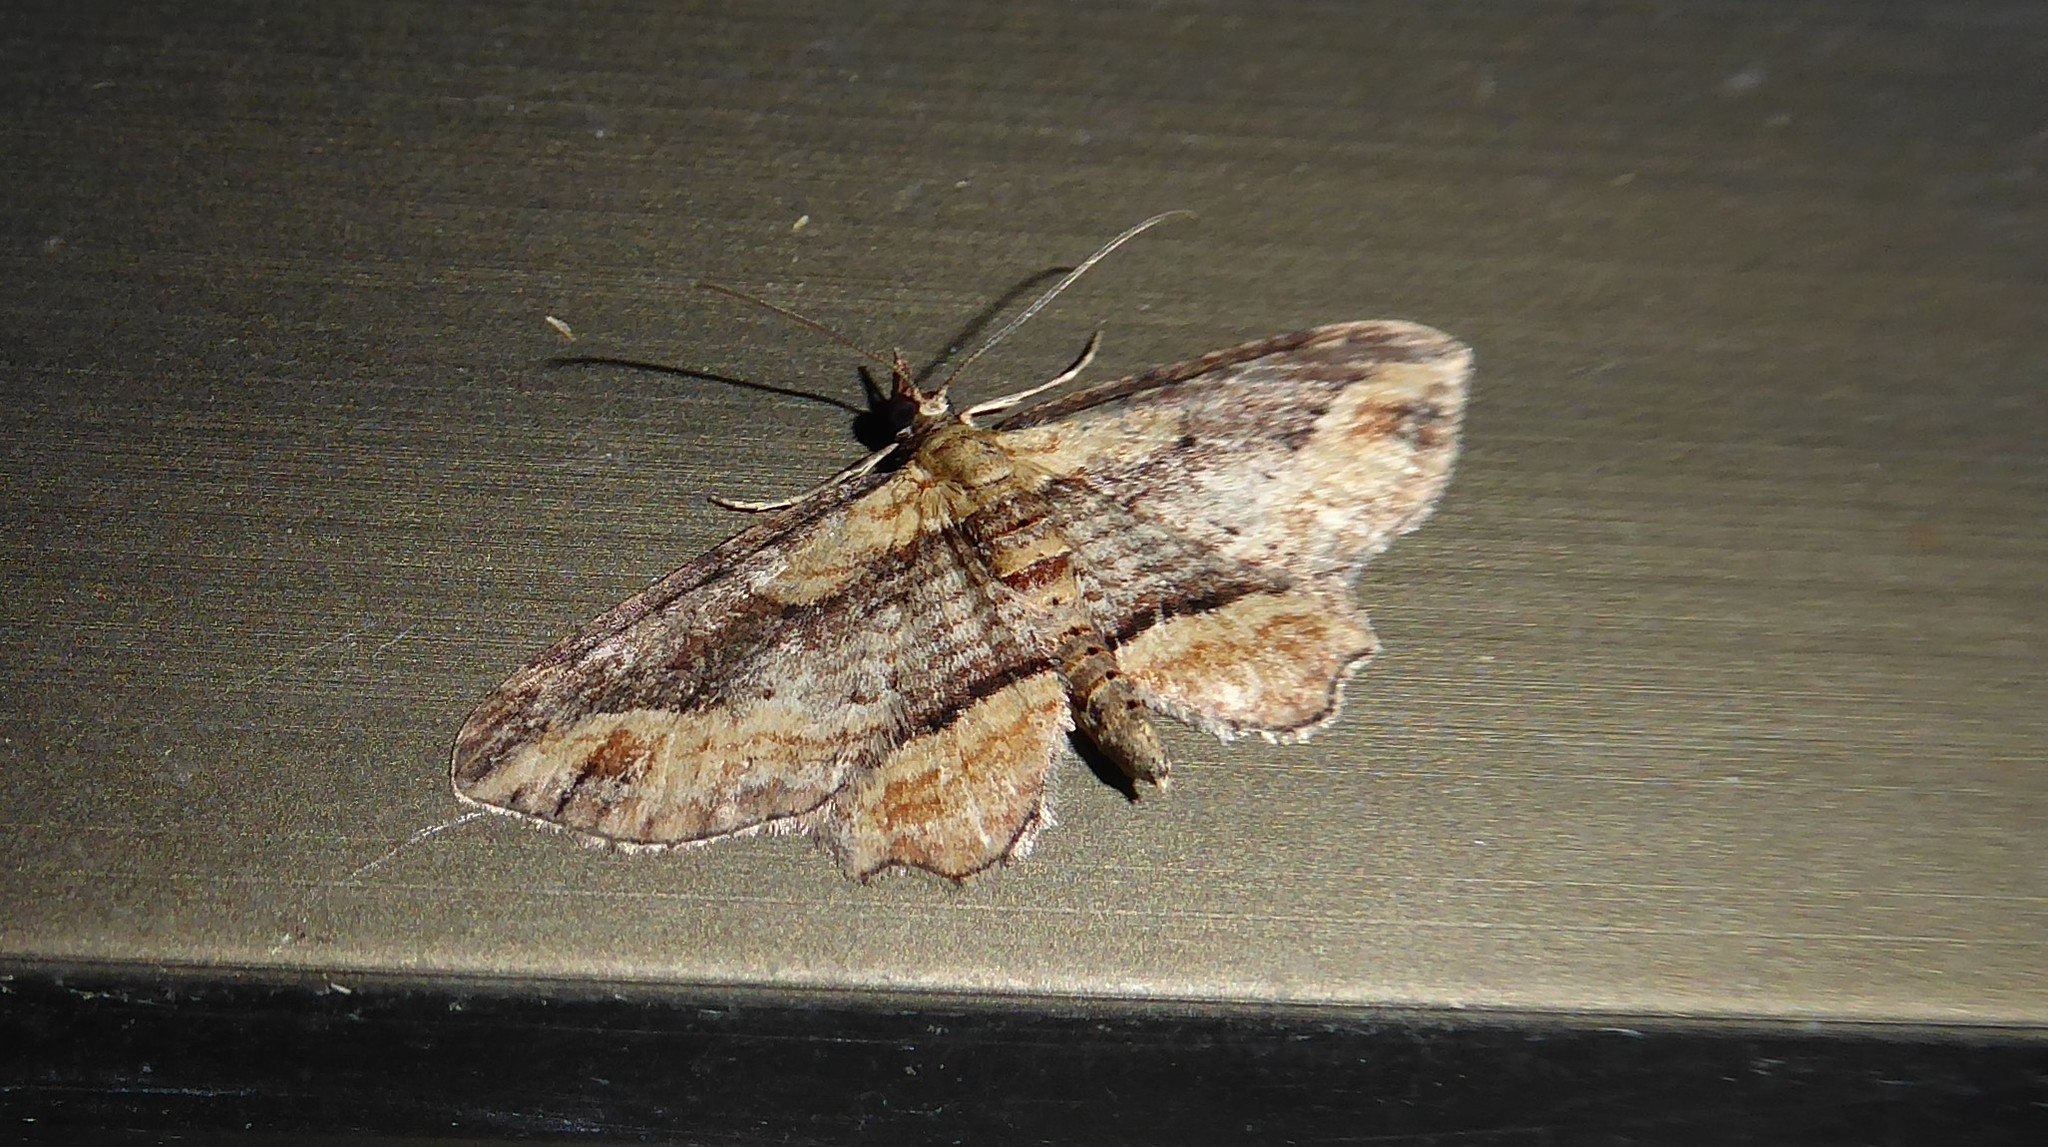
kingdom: Animalia
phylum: Arthropoda
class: Insecta
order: Lepidoptera
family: Geometridae
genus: Chloroclystis
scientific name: Chloroclystis filata
